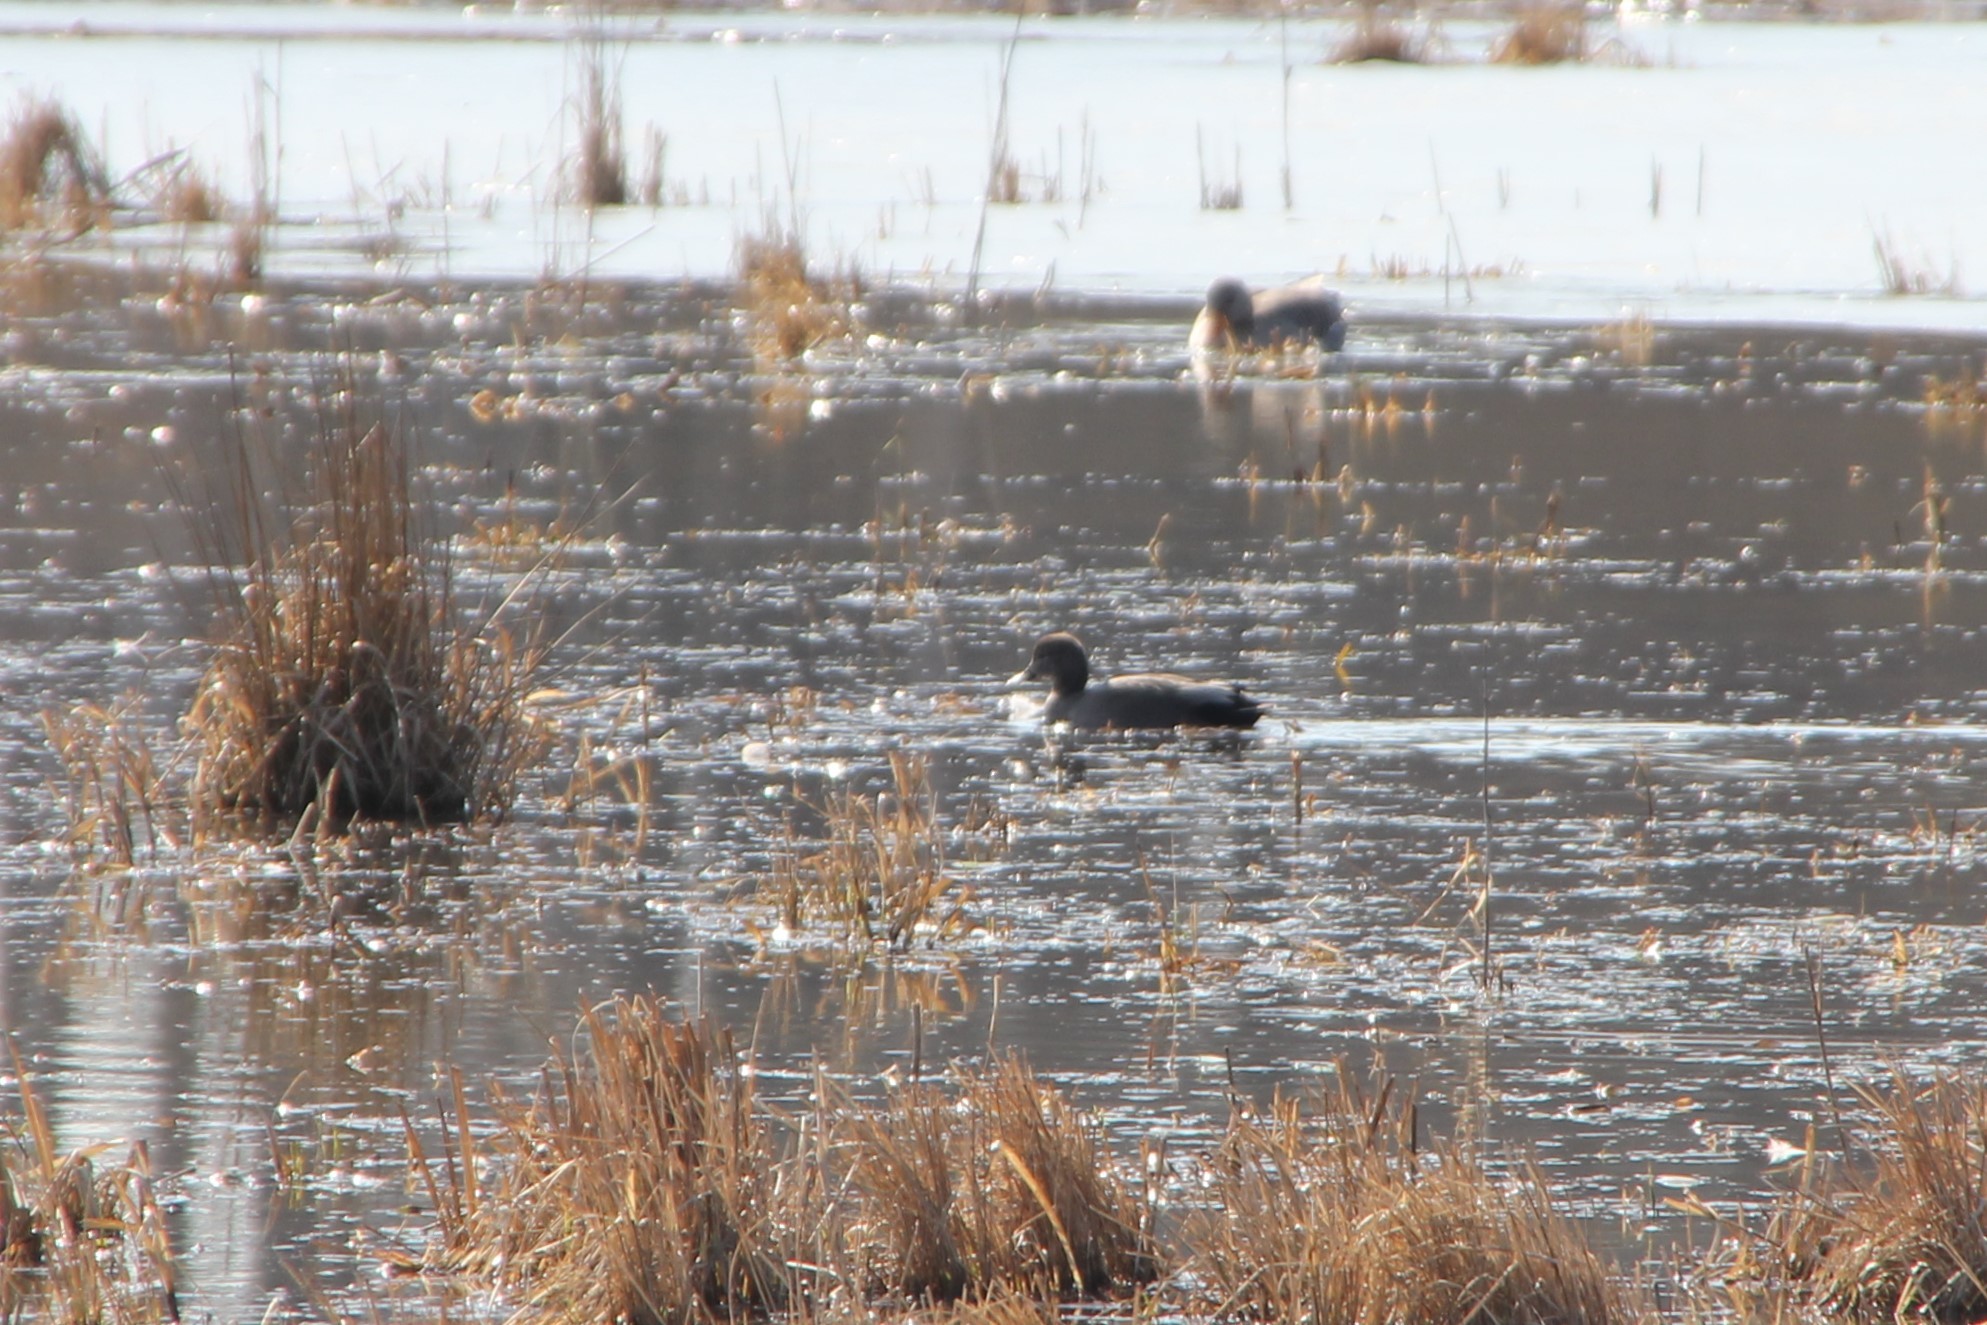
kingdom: Animalia
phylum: Chordata
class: Aves
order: Anseriformes
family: Anatidae
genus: Mareca
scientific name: Mareca strepera
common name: Gadwall
